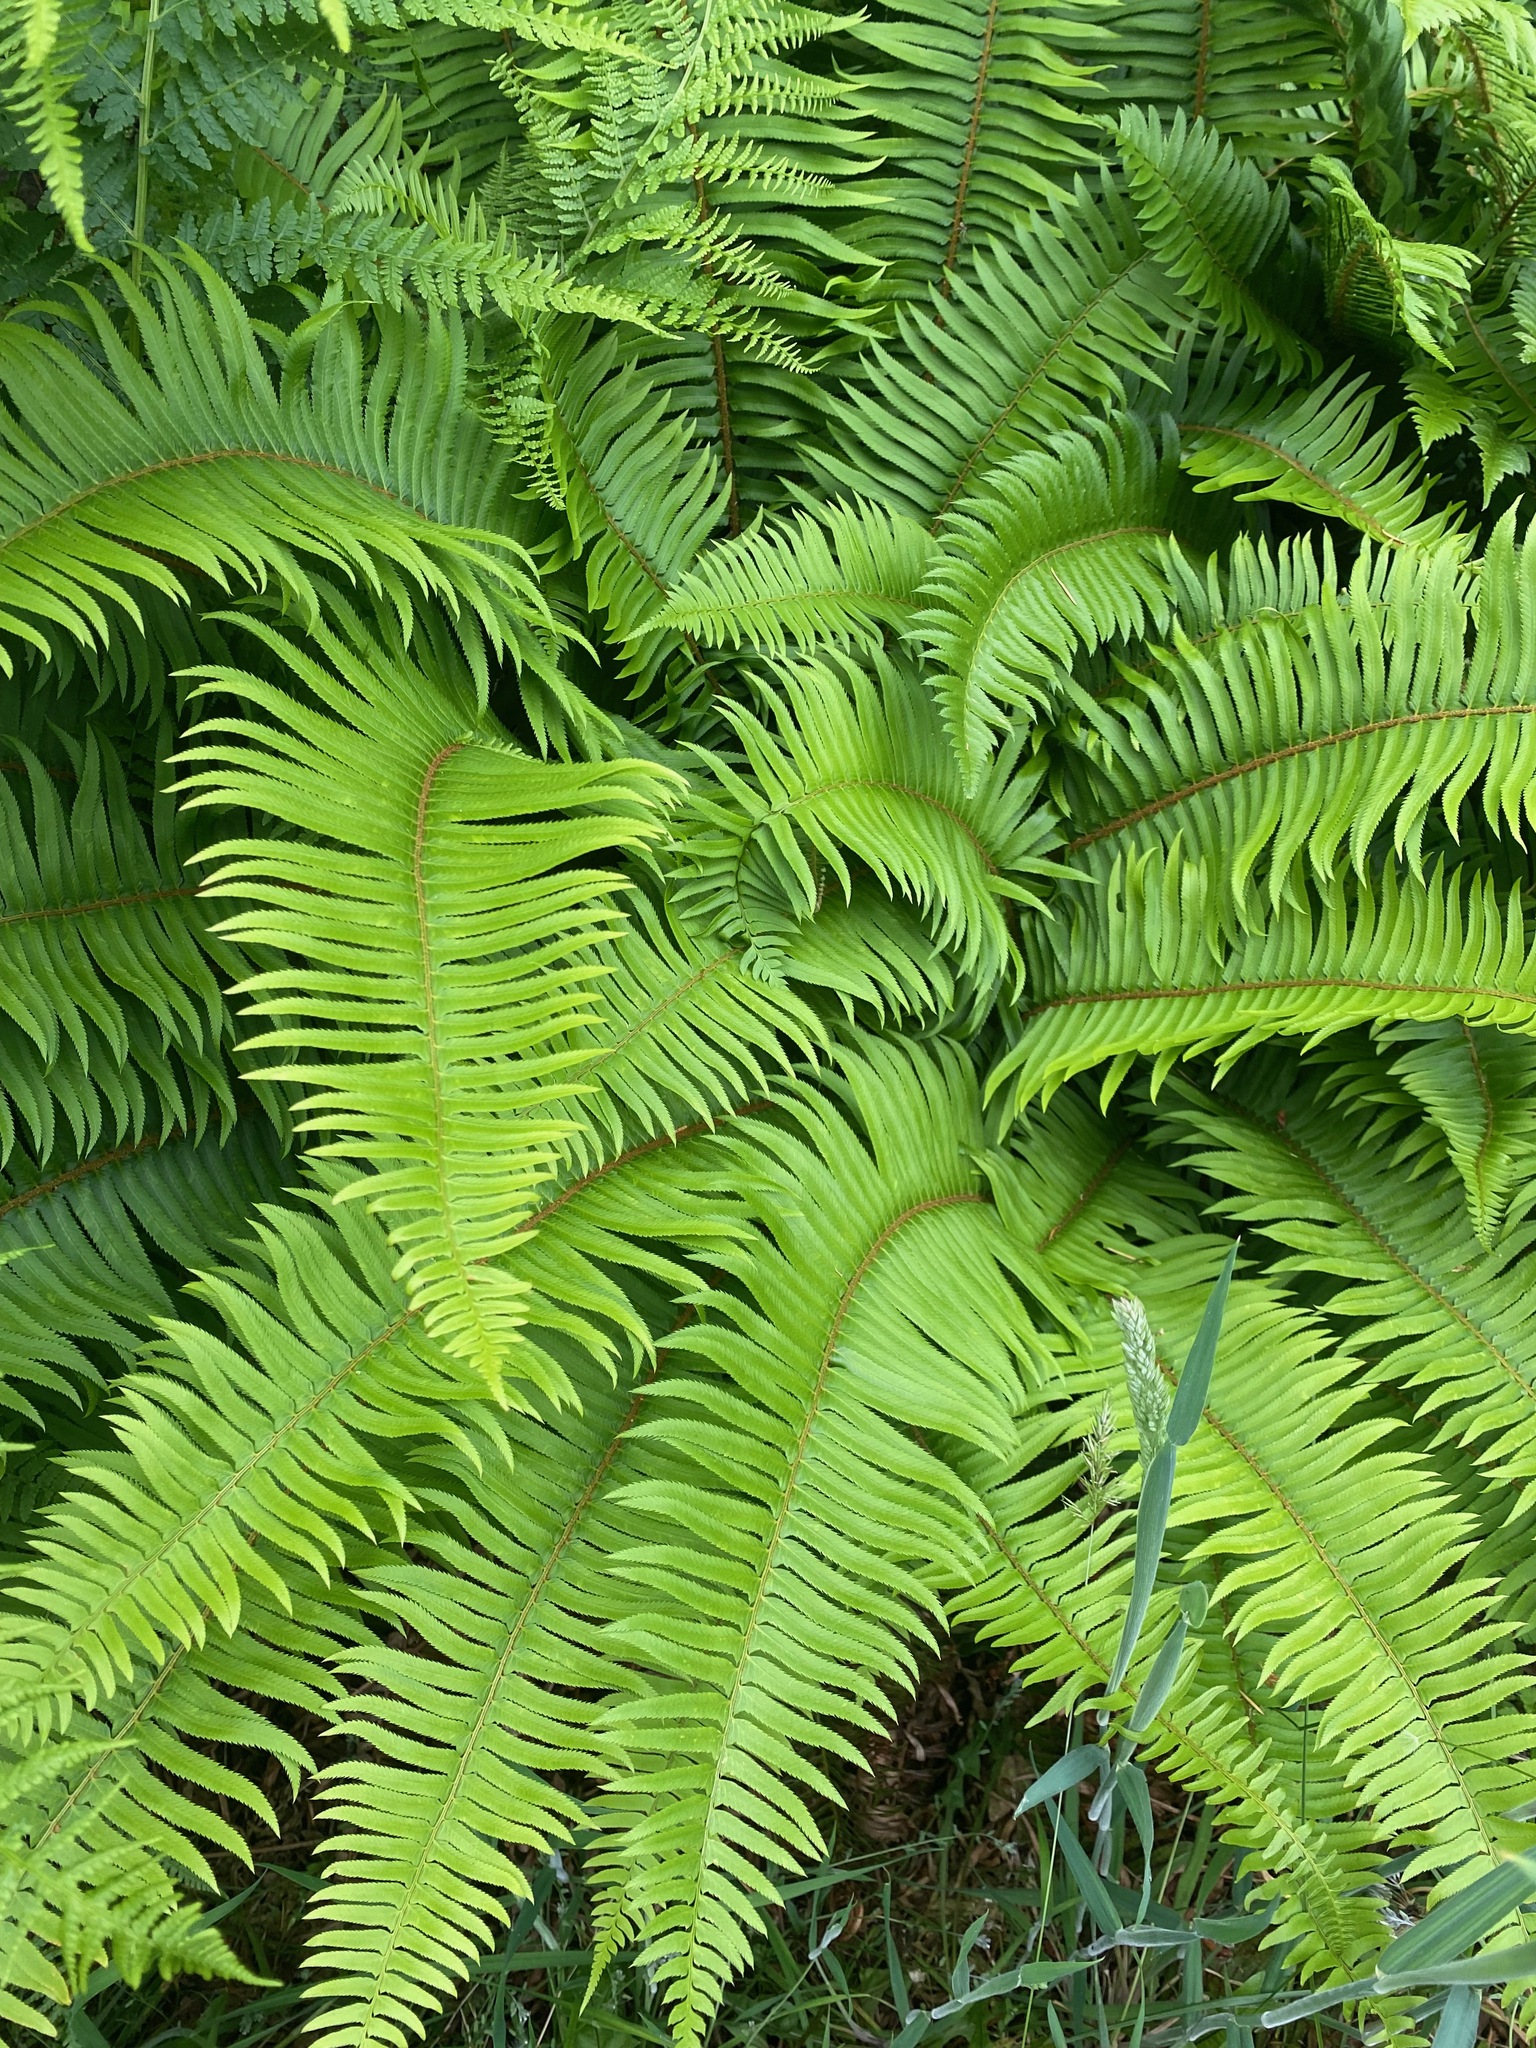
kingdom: Plantae
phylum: Tracheophyta
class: Polypodiopsida
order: Polypodiales
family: Dryopteridaceae
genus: Polystichum
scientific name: Polystichum munitum
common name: Western sword-fern
